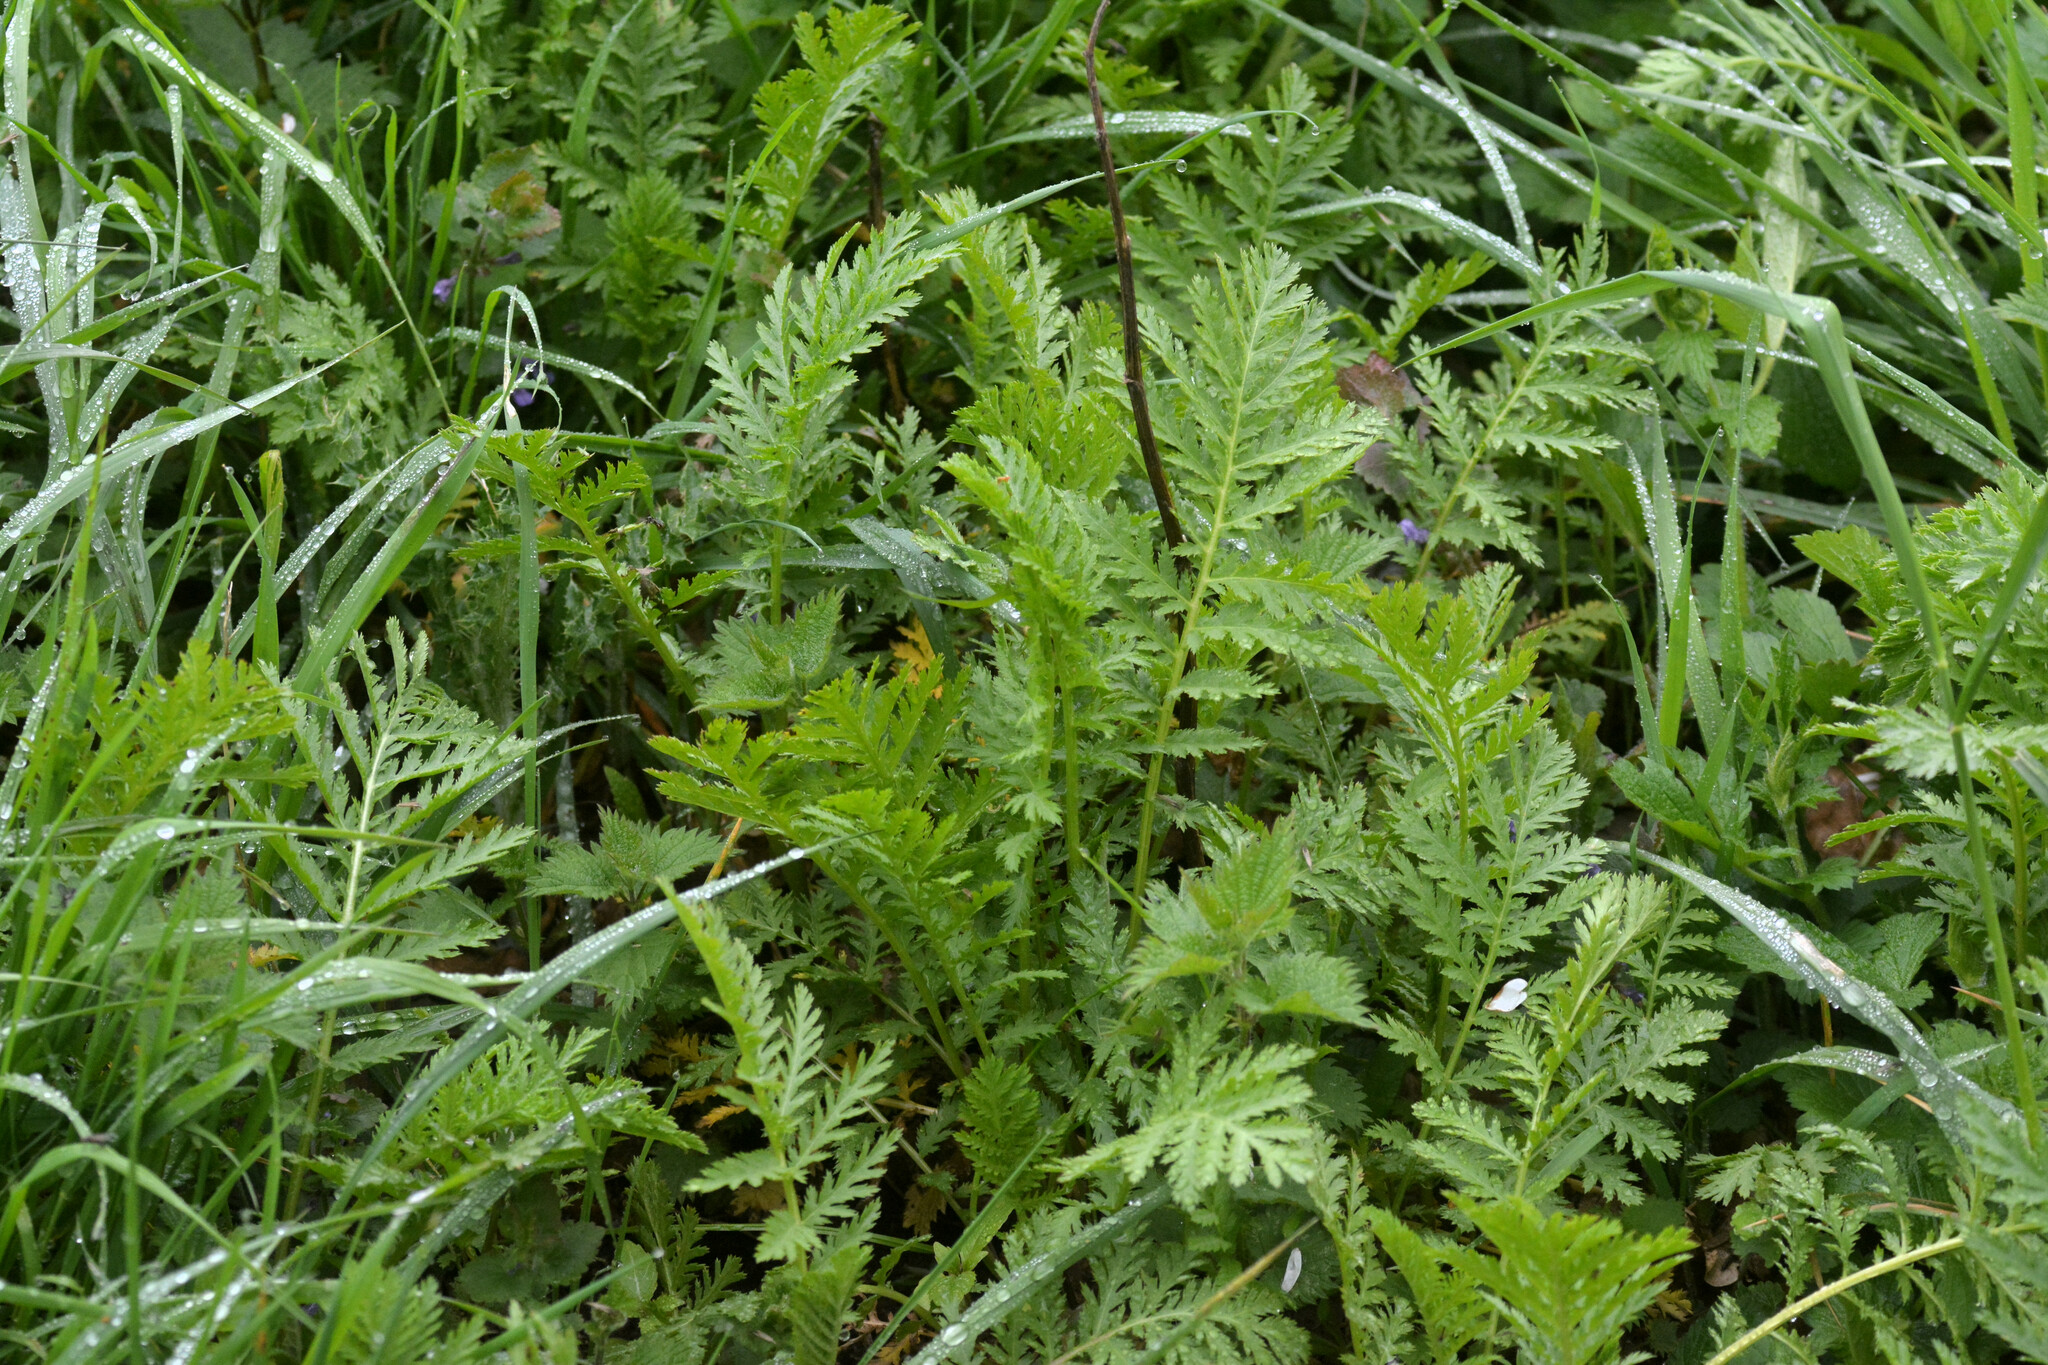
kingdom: Plantae
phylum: Tracheophyta
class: Magnoliopsida
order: Asterales
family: Asteraceae
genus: Tanacetum
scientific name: Tanacetum vulgare
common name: Common tansy
